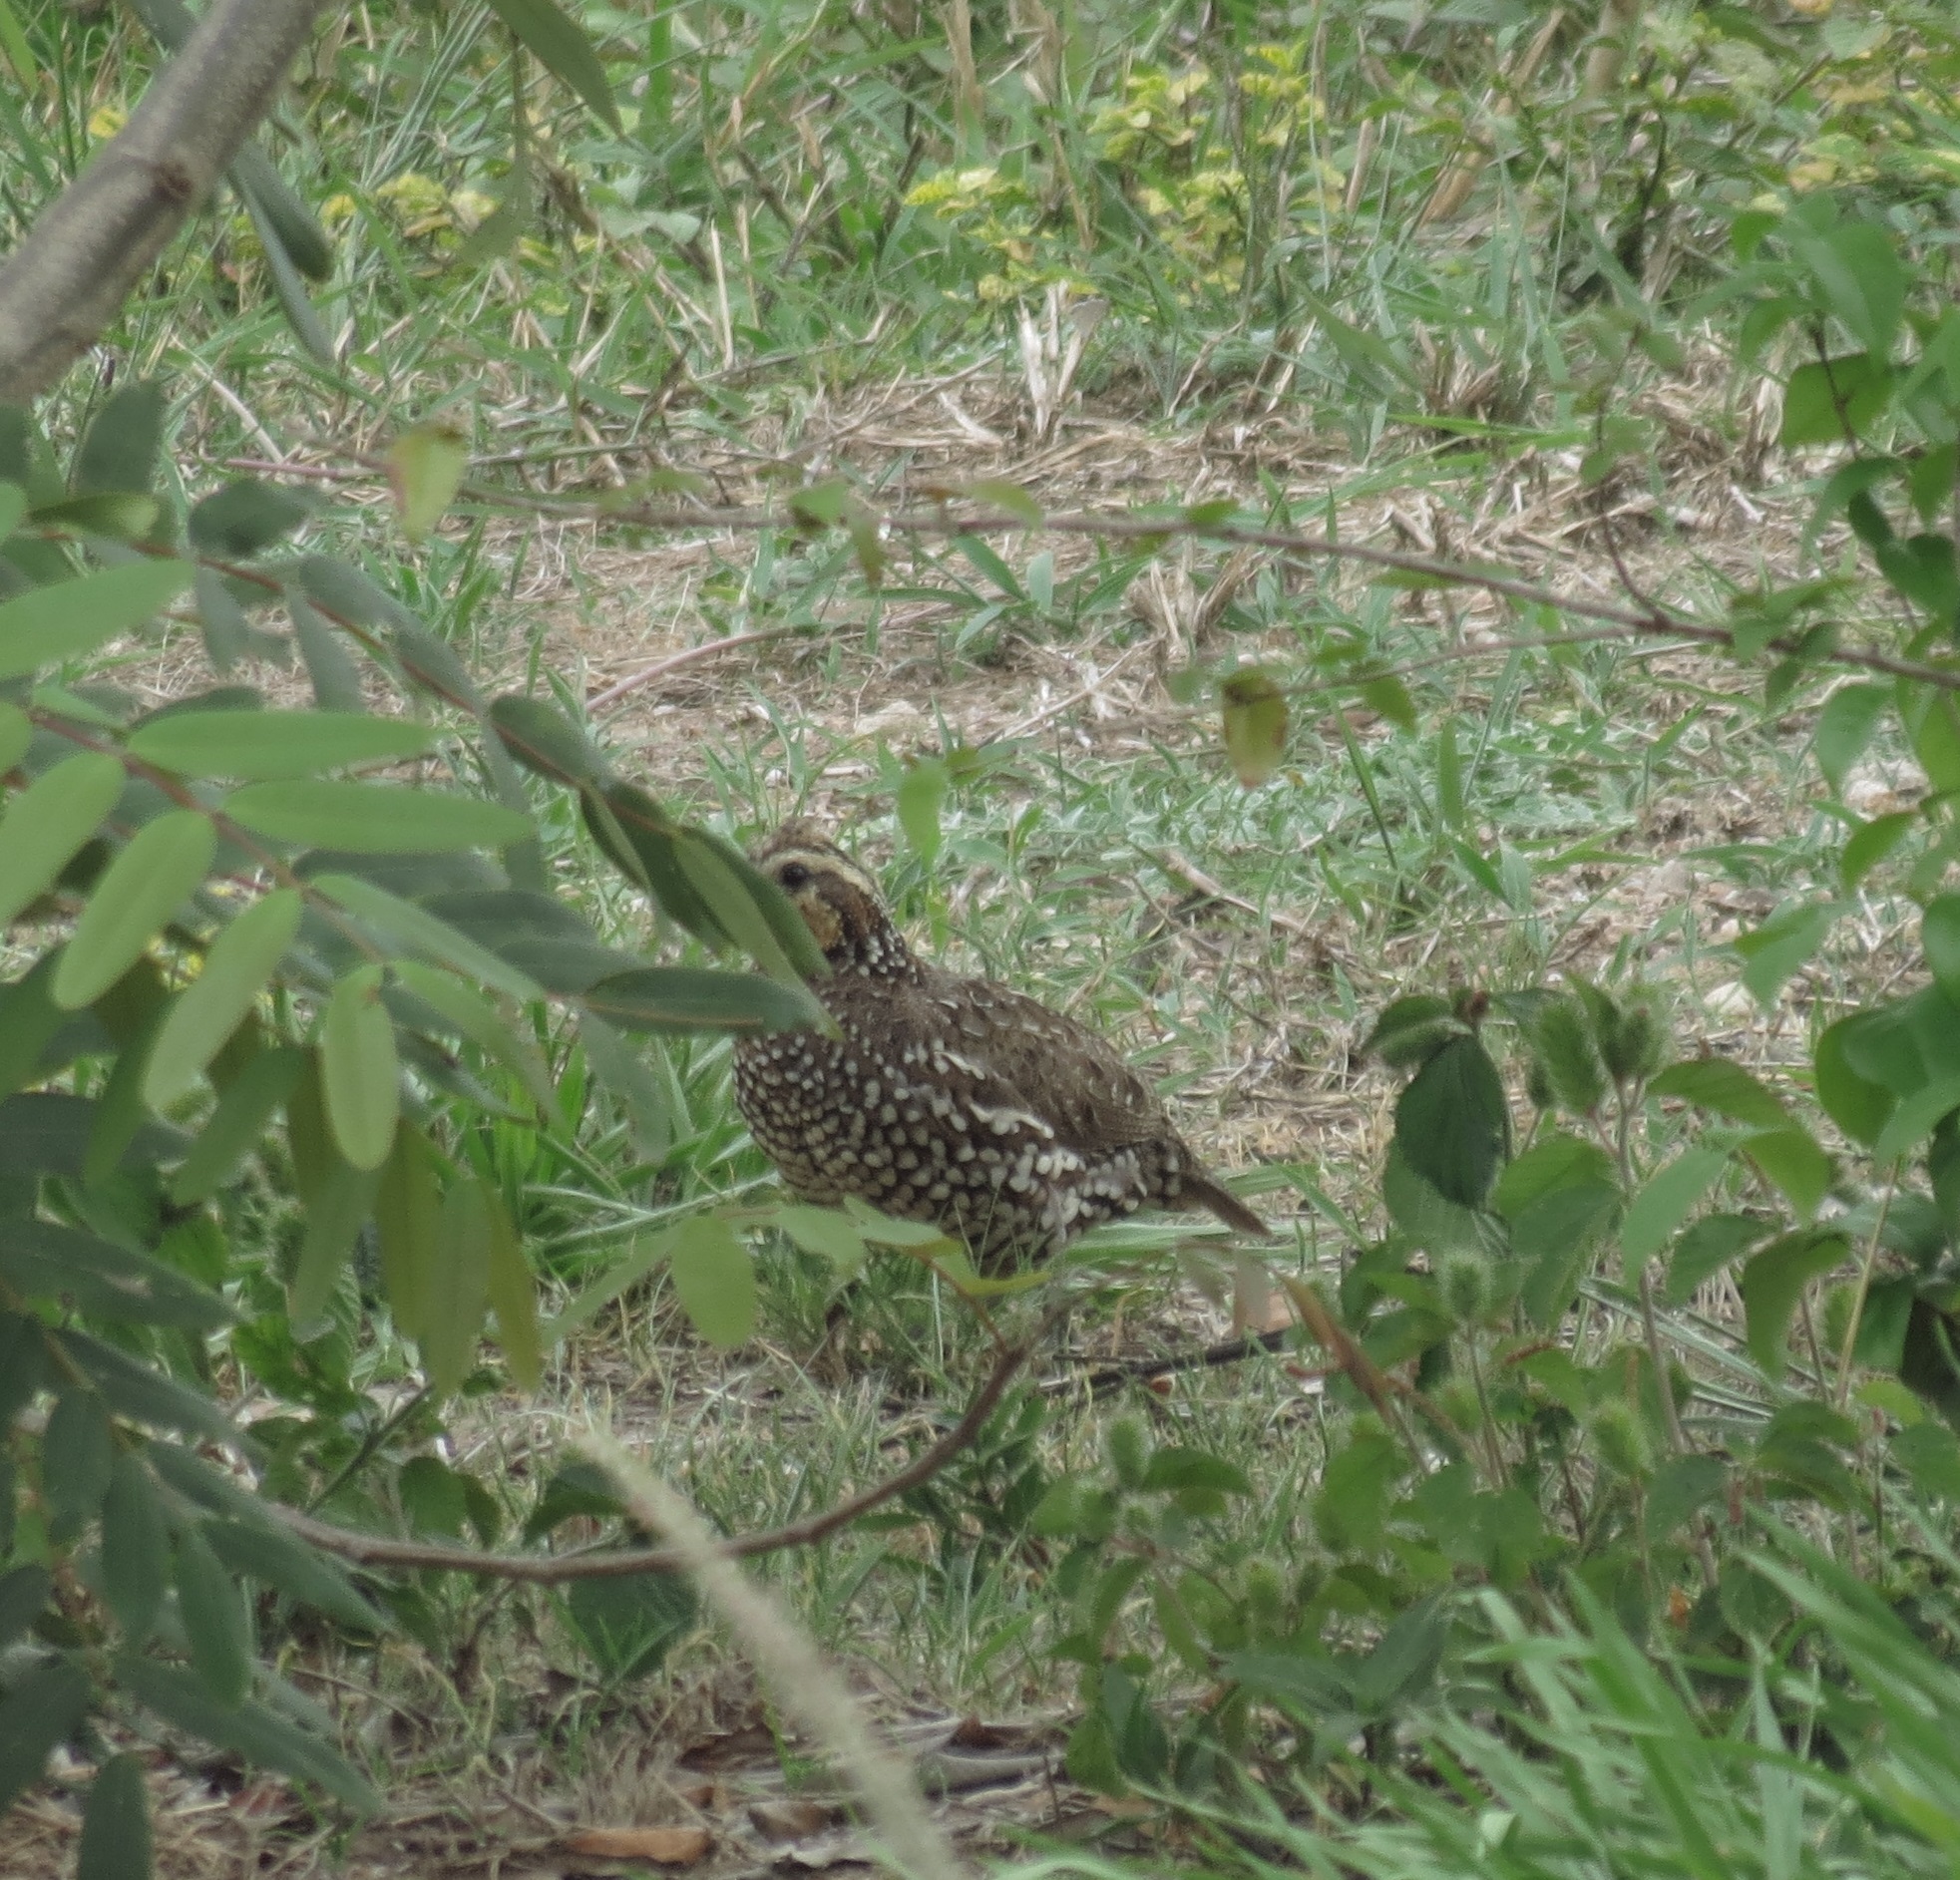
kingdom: Animalia
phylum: Chordata
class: Aves
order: Galliformes
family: Odontophoridae
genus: Colinus
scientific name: Colinus cristatus
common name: Crested bobwhite
